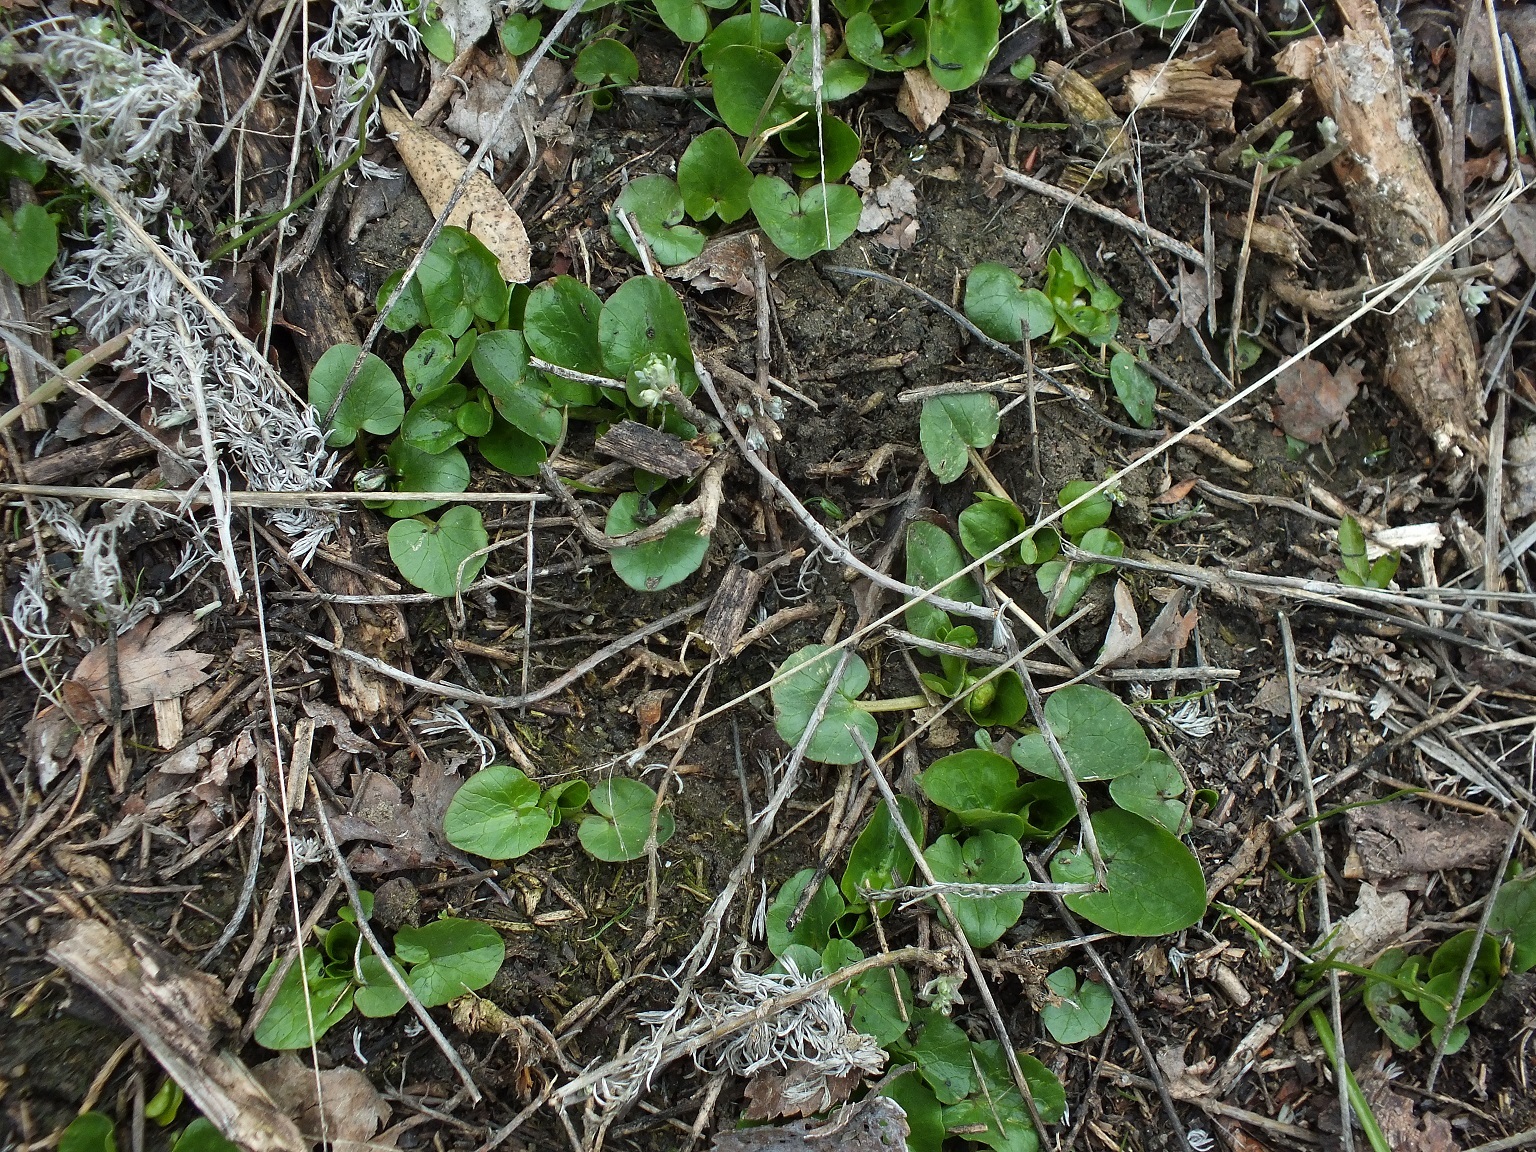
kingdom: Plantae
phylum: Tracheophyta
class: Magnoliopsida
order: Ranunculales
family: Ranunculaceae
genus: Ficaria
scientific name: Ficaria verna
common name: Lesser celandine
